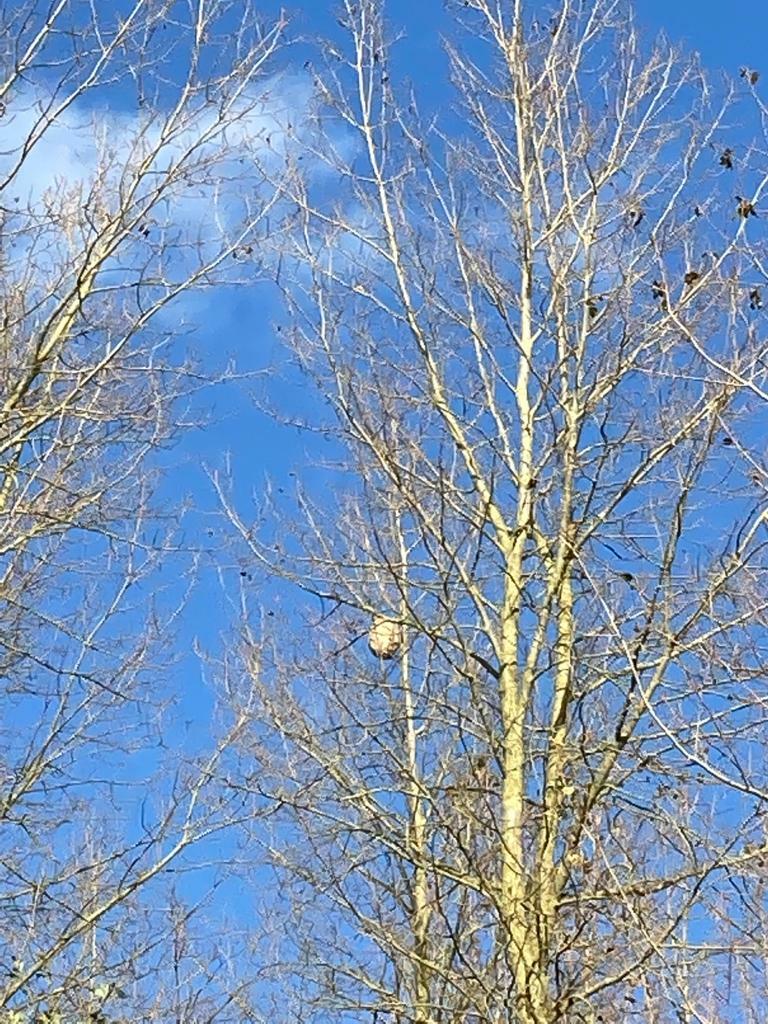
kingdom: Animalia
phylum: Arthropoda
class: Insecta
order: Hymenoptera
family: Vespidae
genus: Vespa
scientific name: Vespa velutina
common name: Asian hornet
